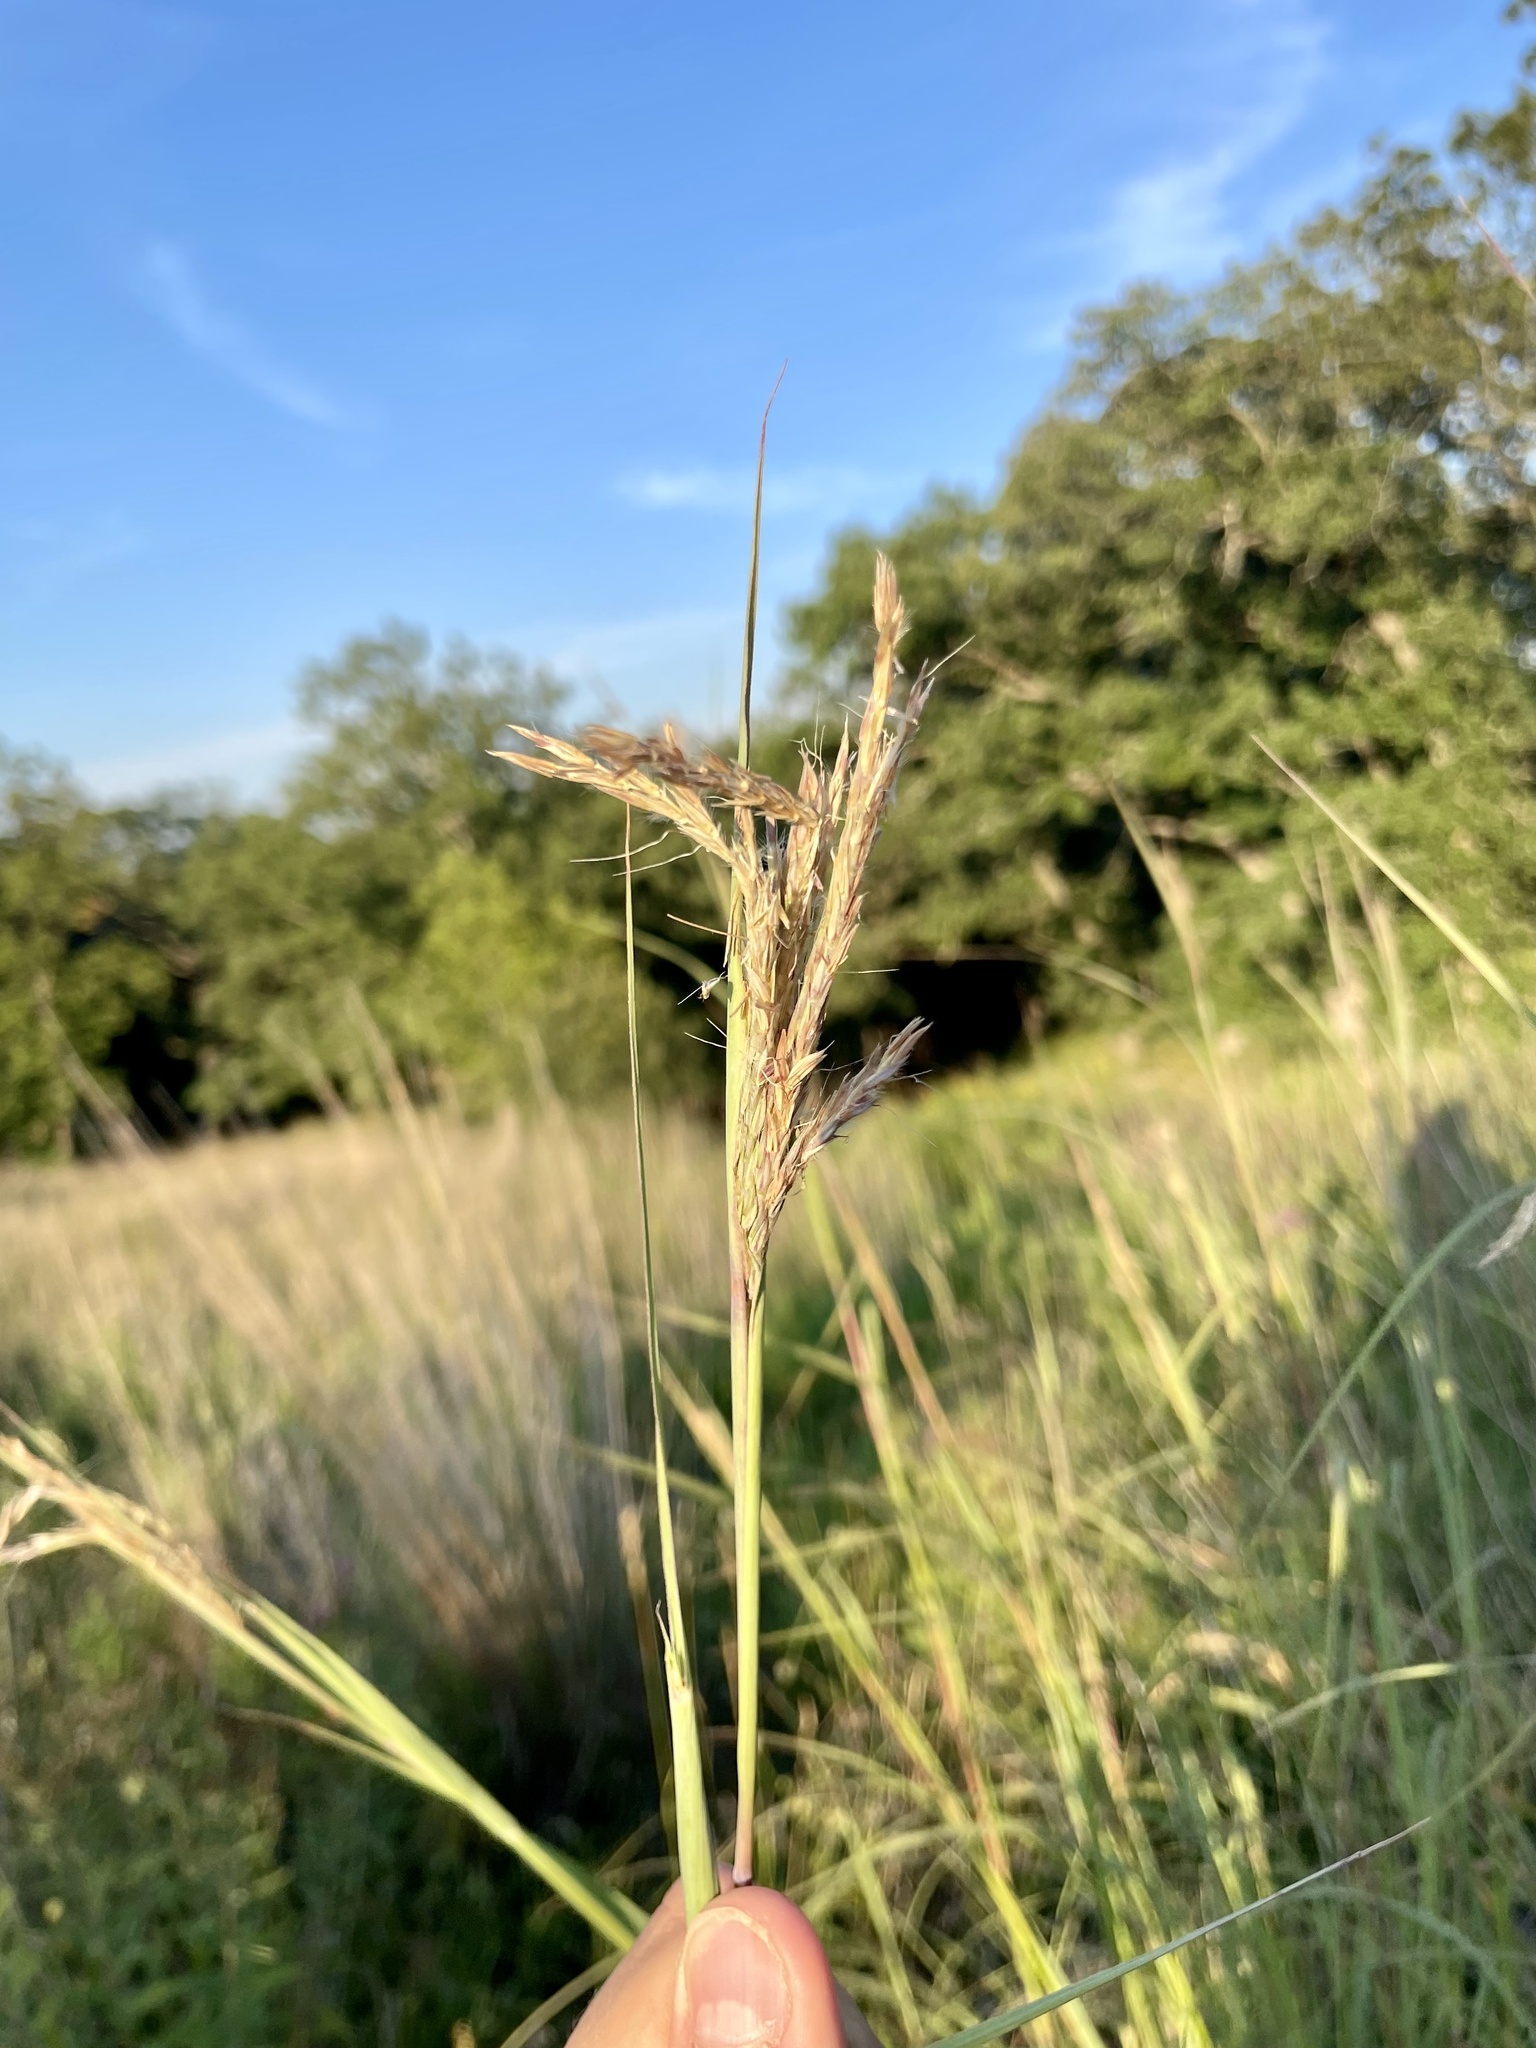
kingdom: Plantae
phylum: Tracheophyta
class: Liliopsida
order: Poales
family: Poaceae
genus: Andropogon
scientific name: Andropogon gerardi
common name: Big bluestem
